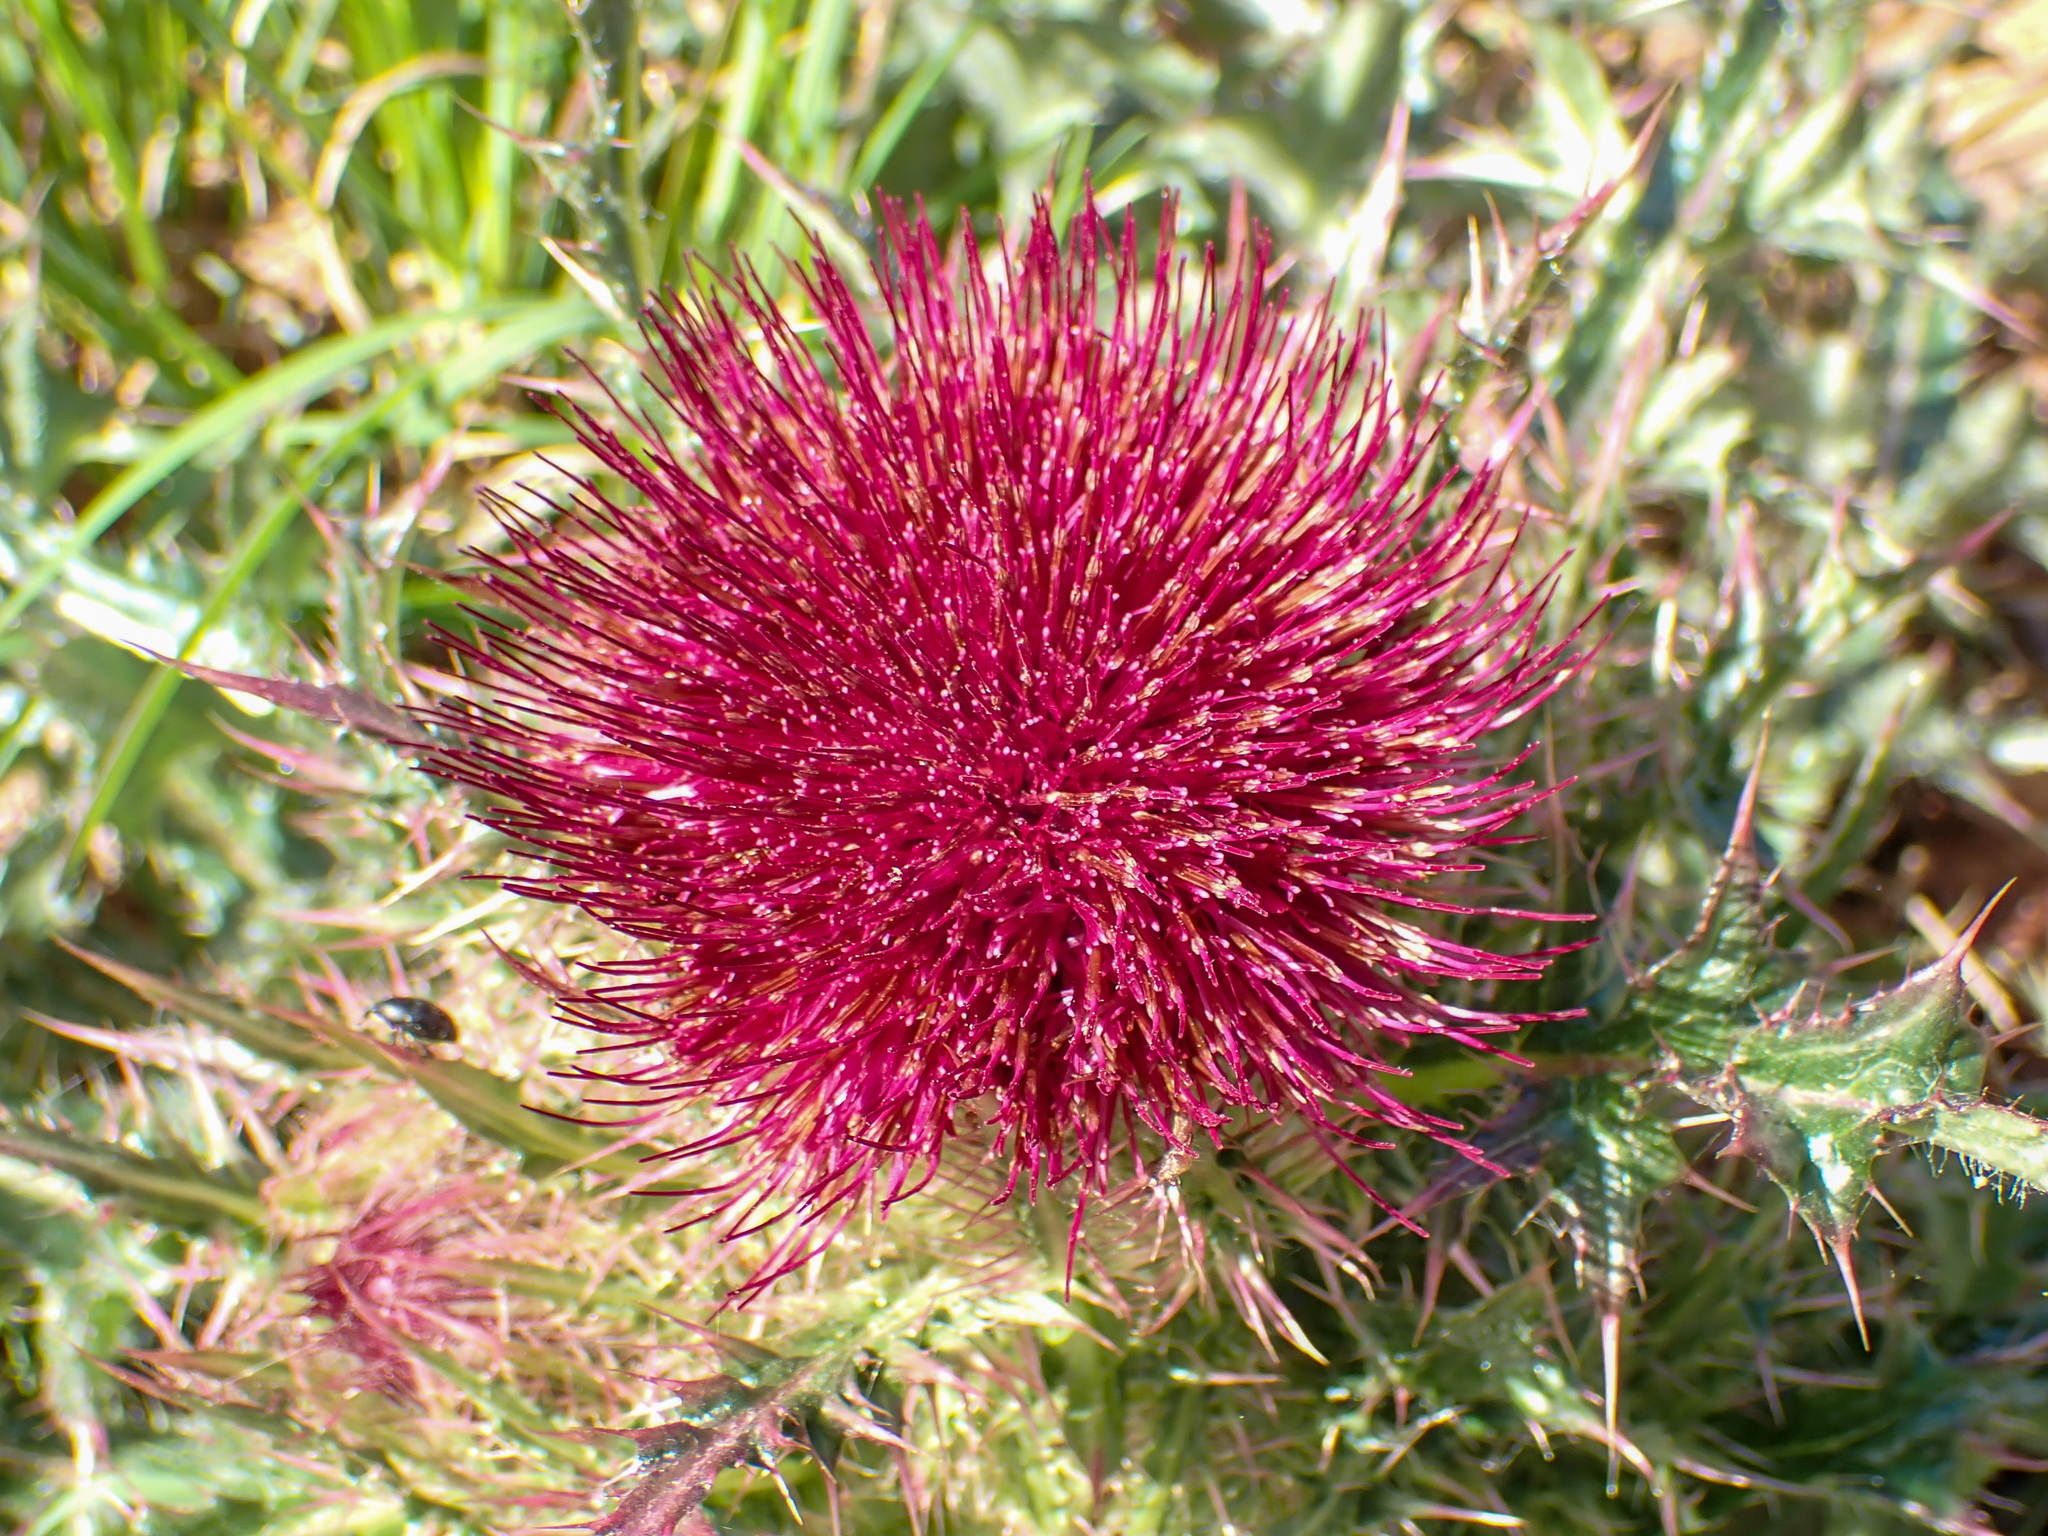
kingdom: Plantae
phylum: Tracheophyta
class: Magnoliopsida
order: Asterales
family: Asteraceae
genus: Cirsium
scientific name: Cirsium horridulum
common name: Bristly thistle
